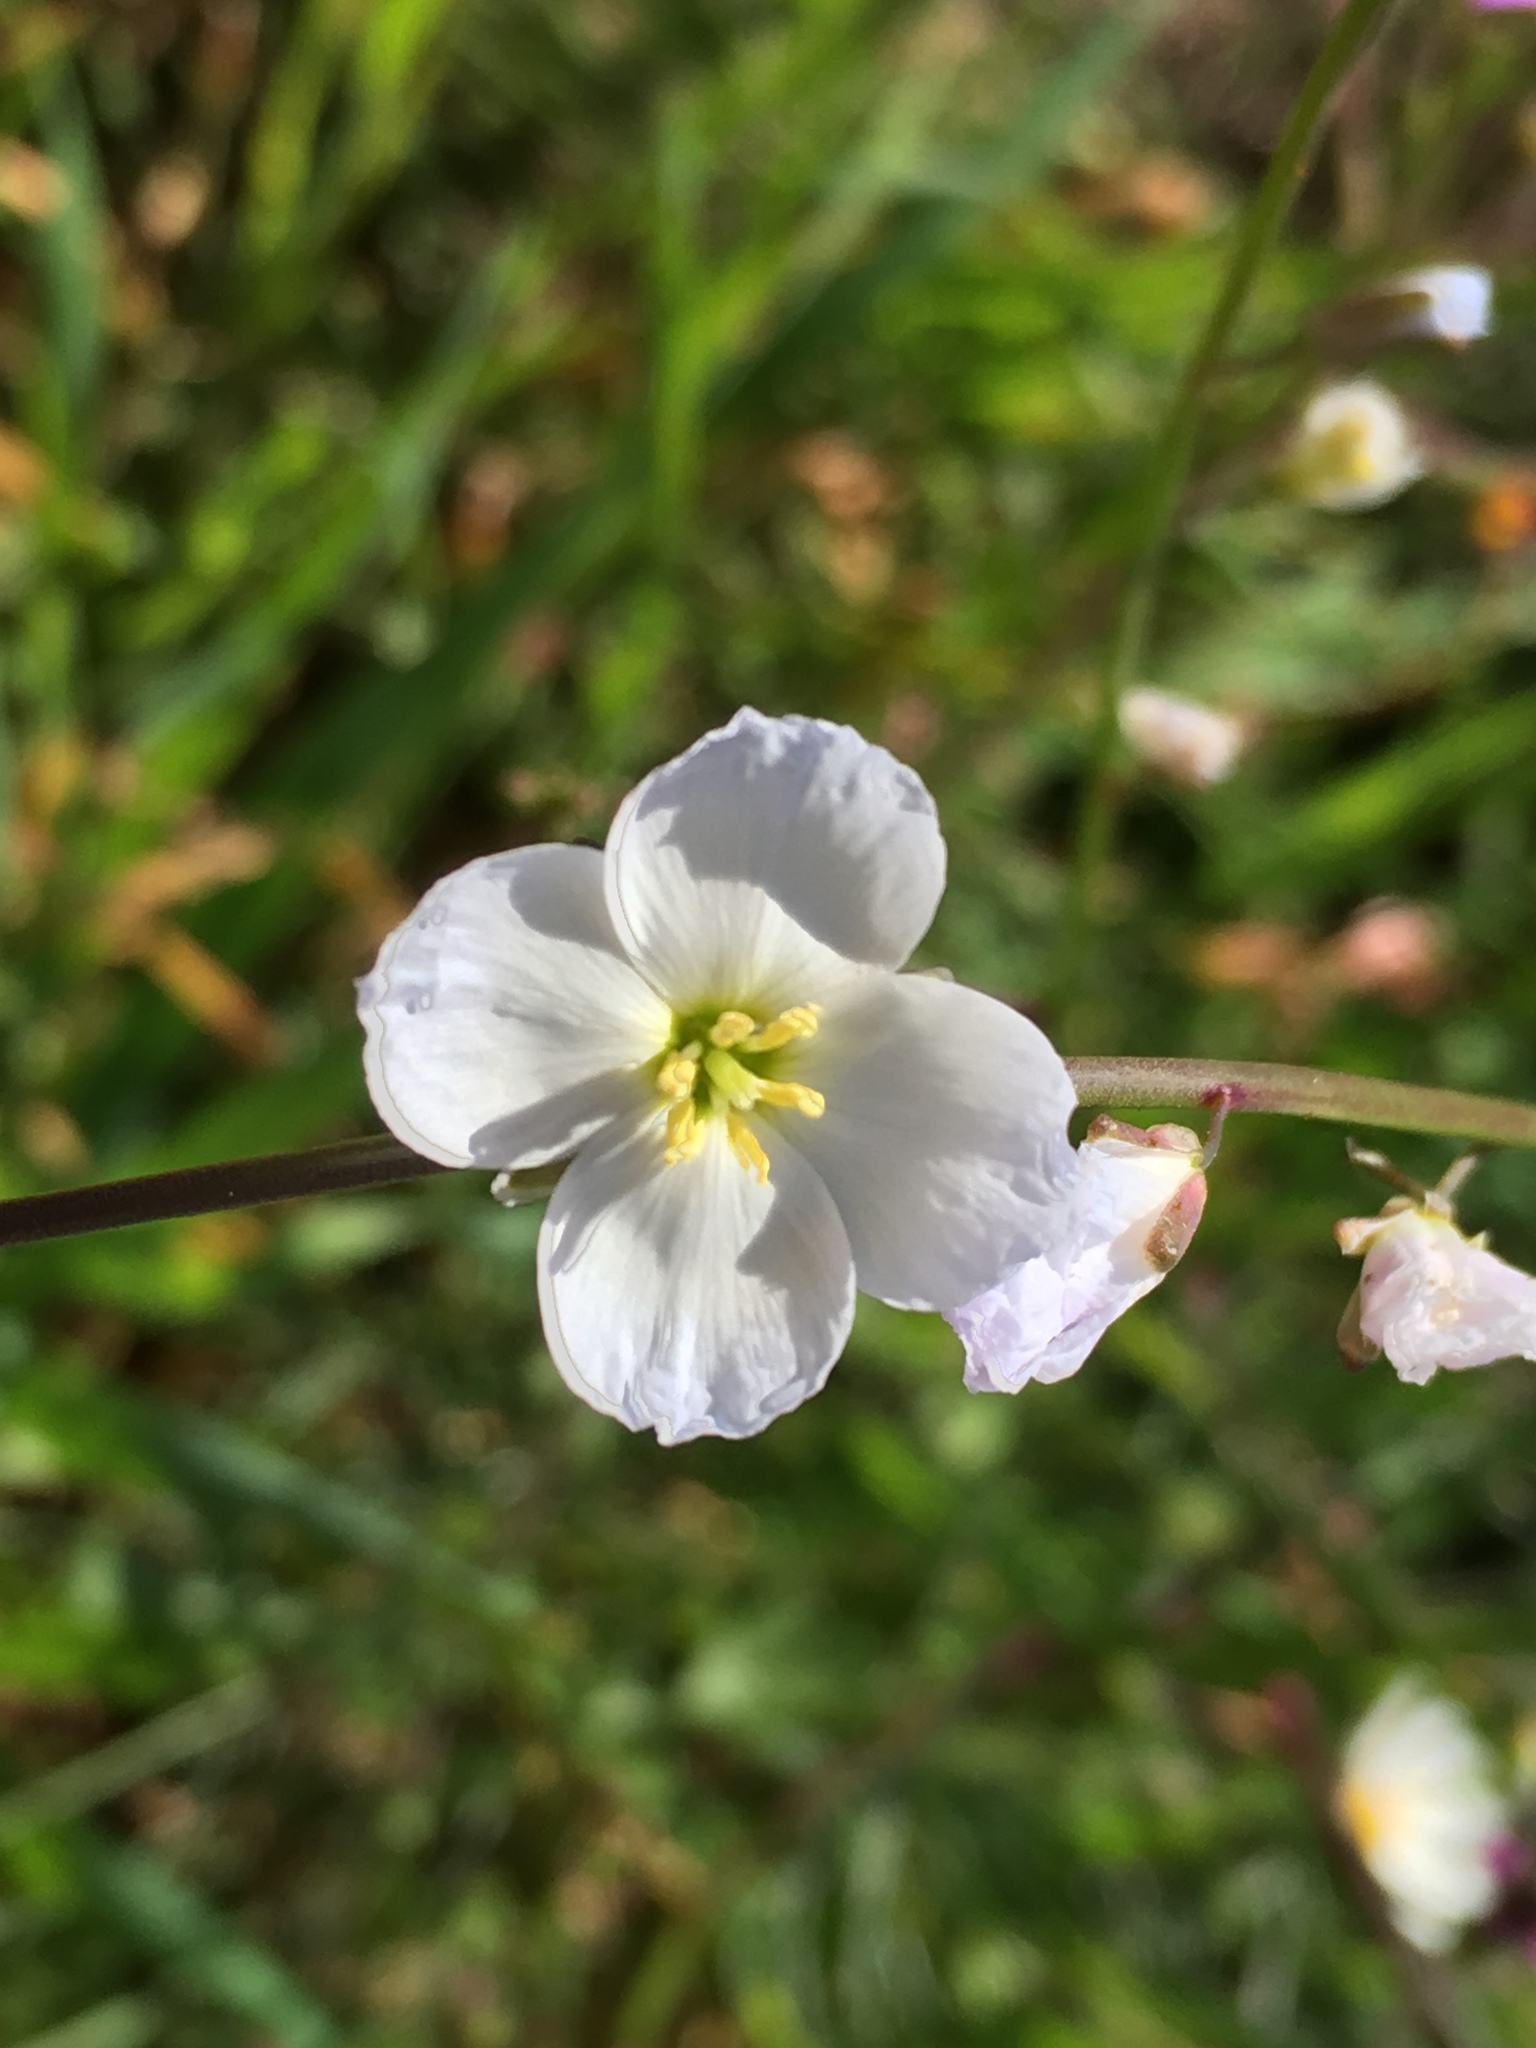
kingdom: Plantae
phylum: Tracheophyta
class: Magnoliopsida
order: Brassicales
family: Brassicaceae
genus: Heliophila
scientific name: Heliophila coronopifolia
